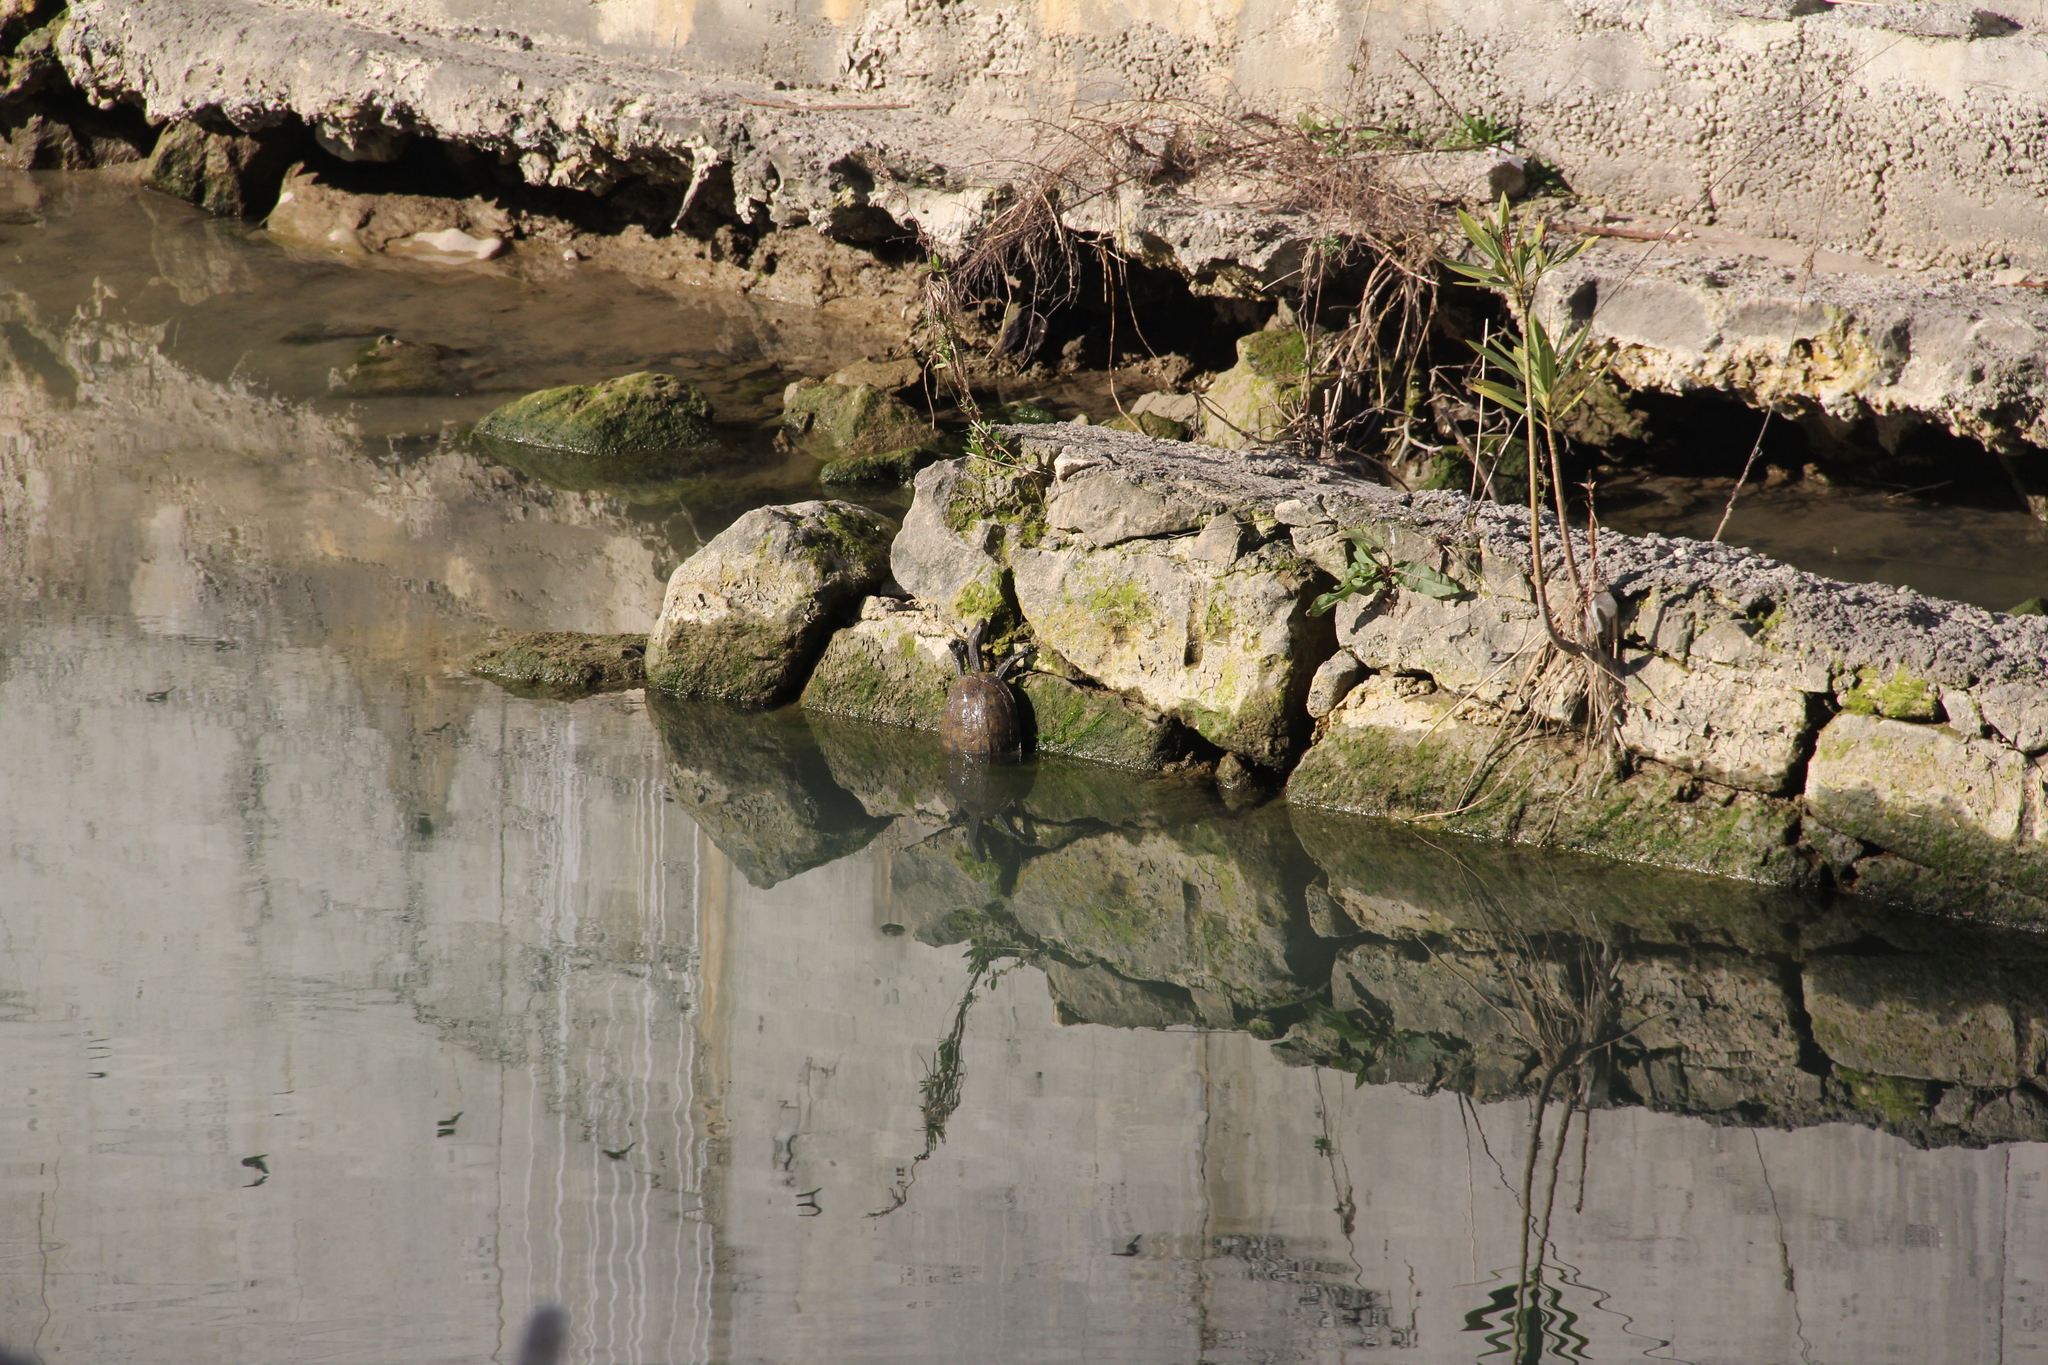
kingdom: Animalia
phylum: Chordata
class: Testudines
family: Geoemydidae
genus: Mauremys
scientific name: Mauremys rivulata
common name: Western caspian turtle
